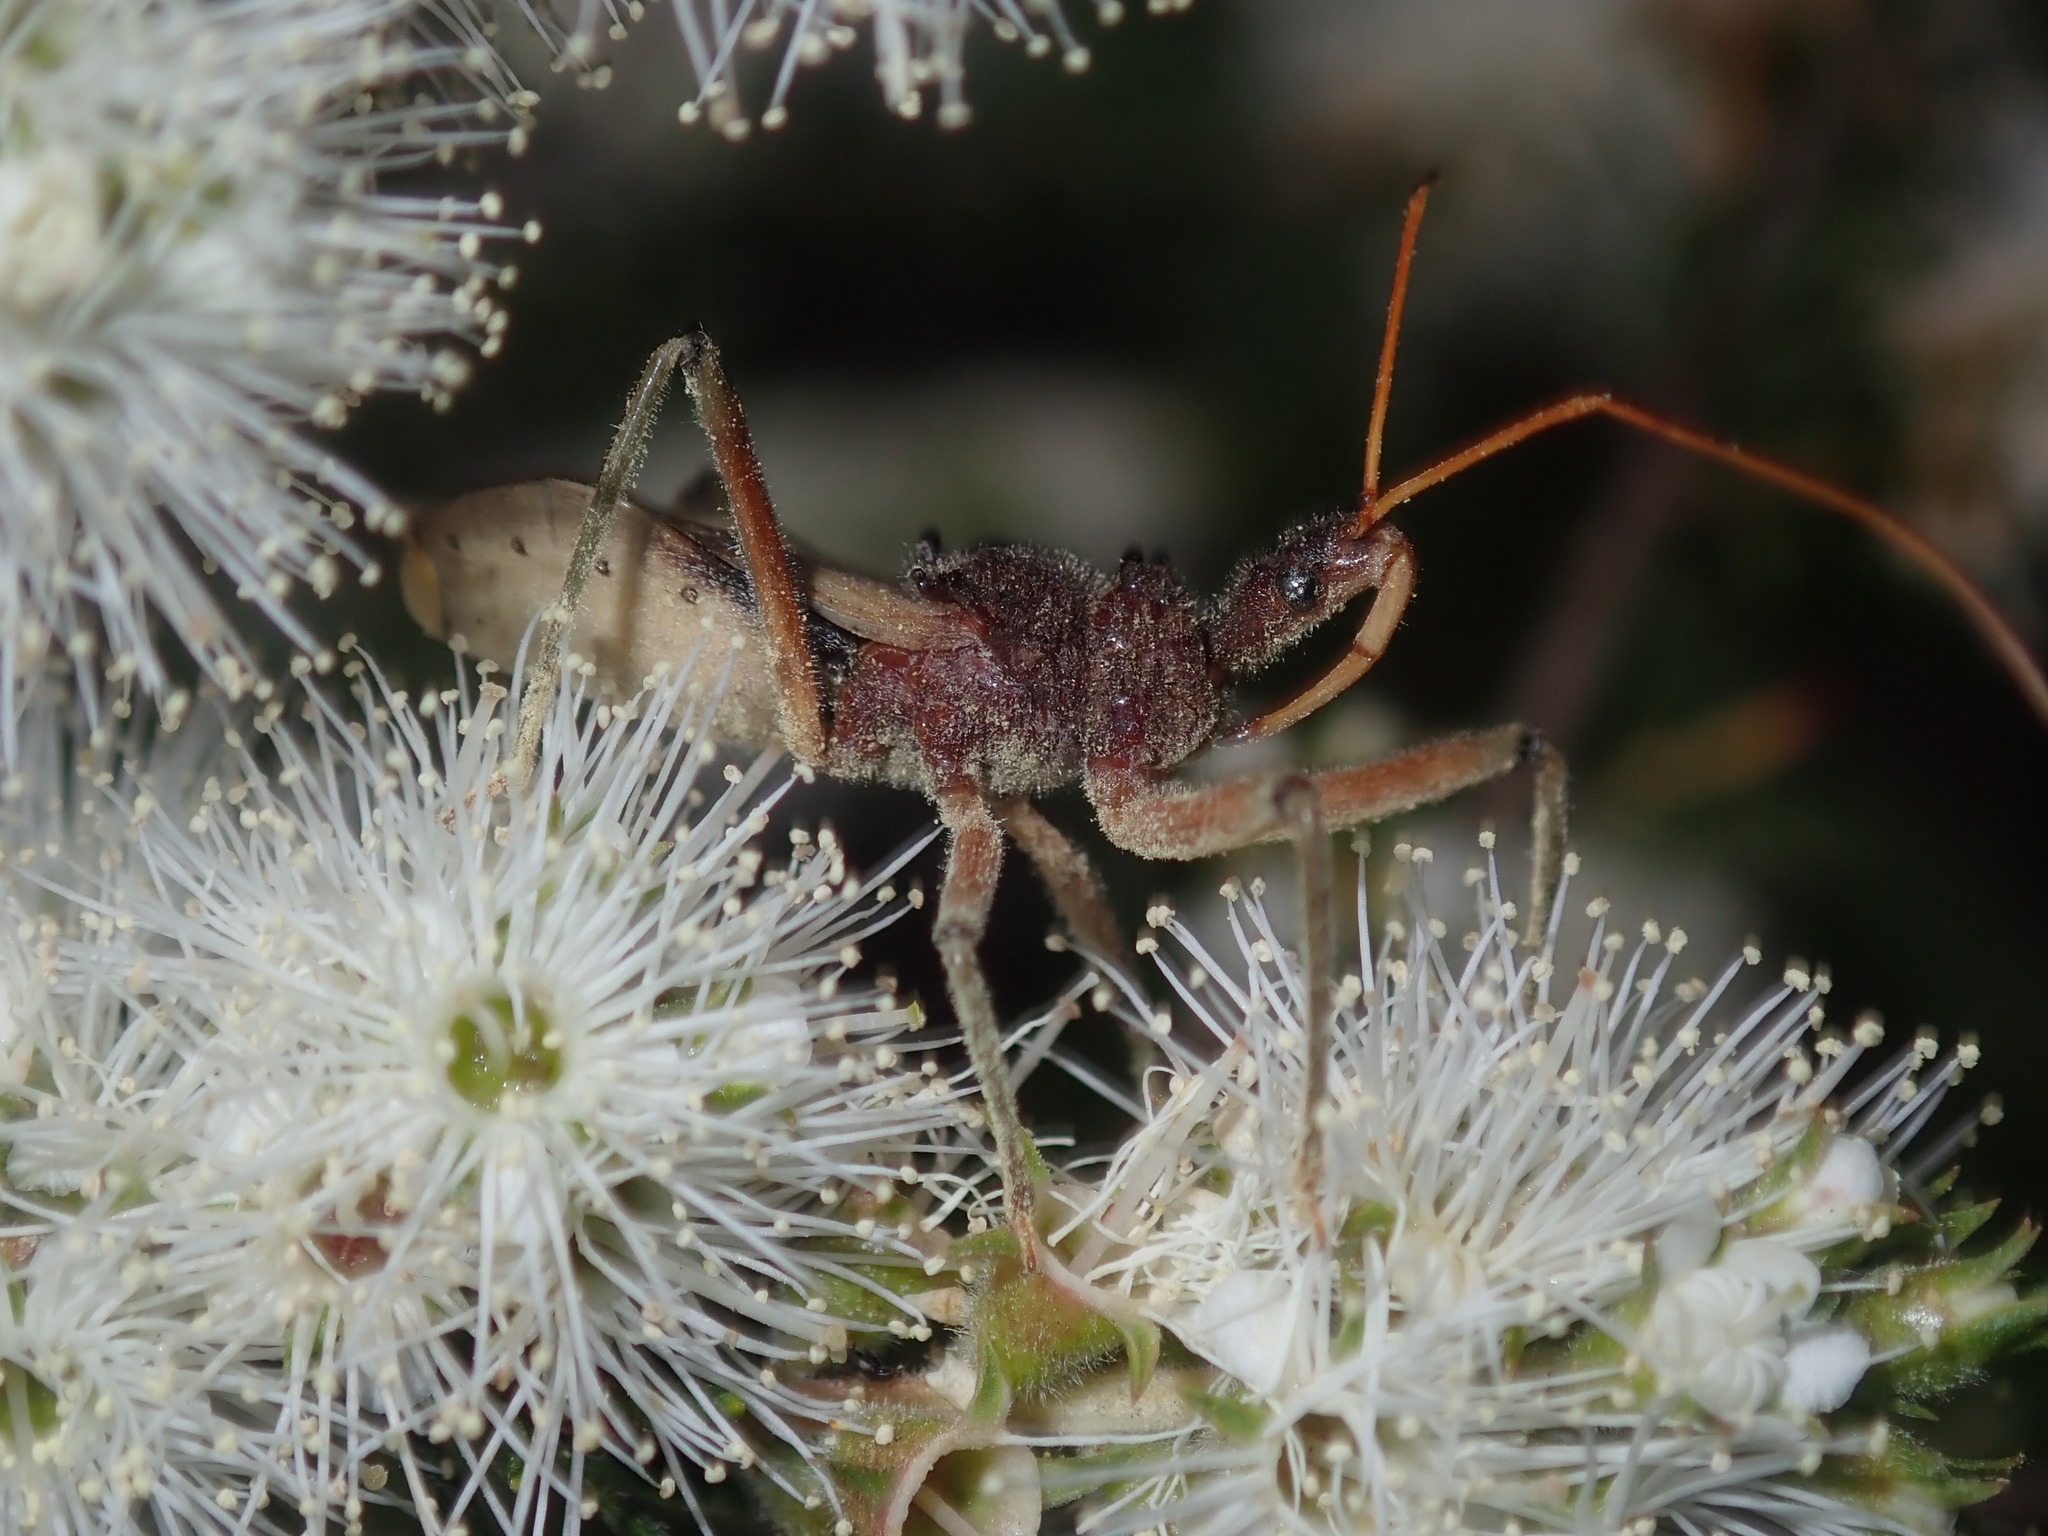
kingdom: Animalia
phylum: Arthropoda
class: Insecta
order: Hemiptera
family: Reduviidae
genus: Pristhesancus
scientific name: Pristhesancus plagipennis
